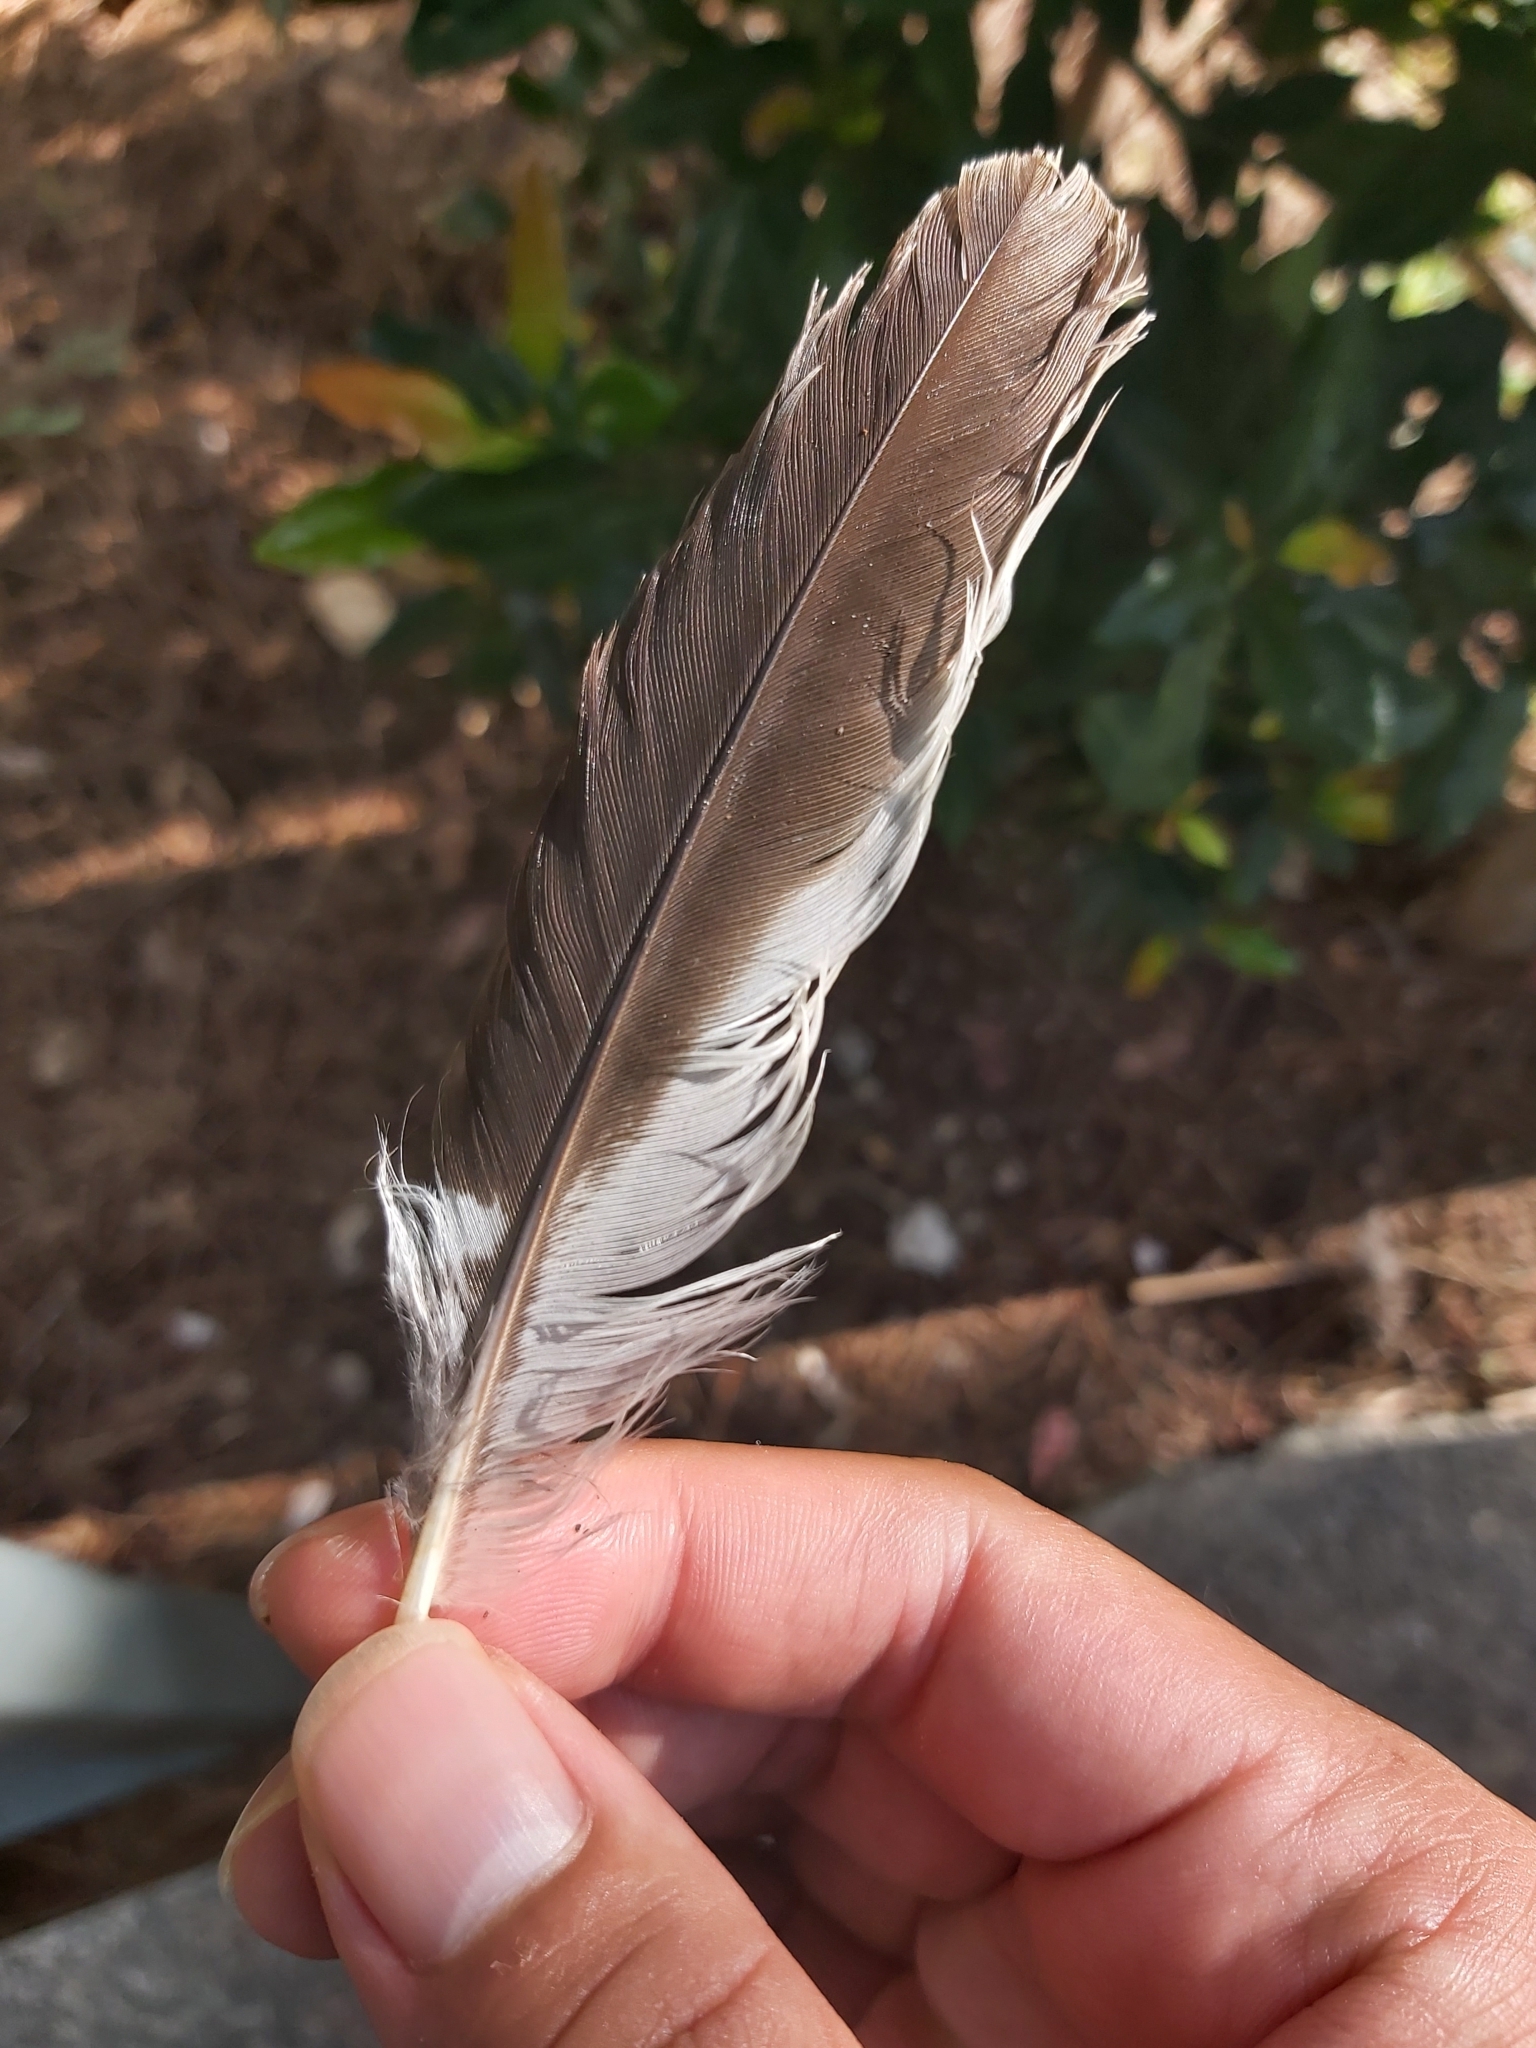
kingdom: Animalia
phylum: Chordata
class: Aves
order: Coraciiformes
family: Alcedinidae
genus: Dacelo
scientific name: Dacelo novaeguineae
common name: Laughing kookaburra
